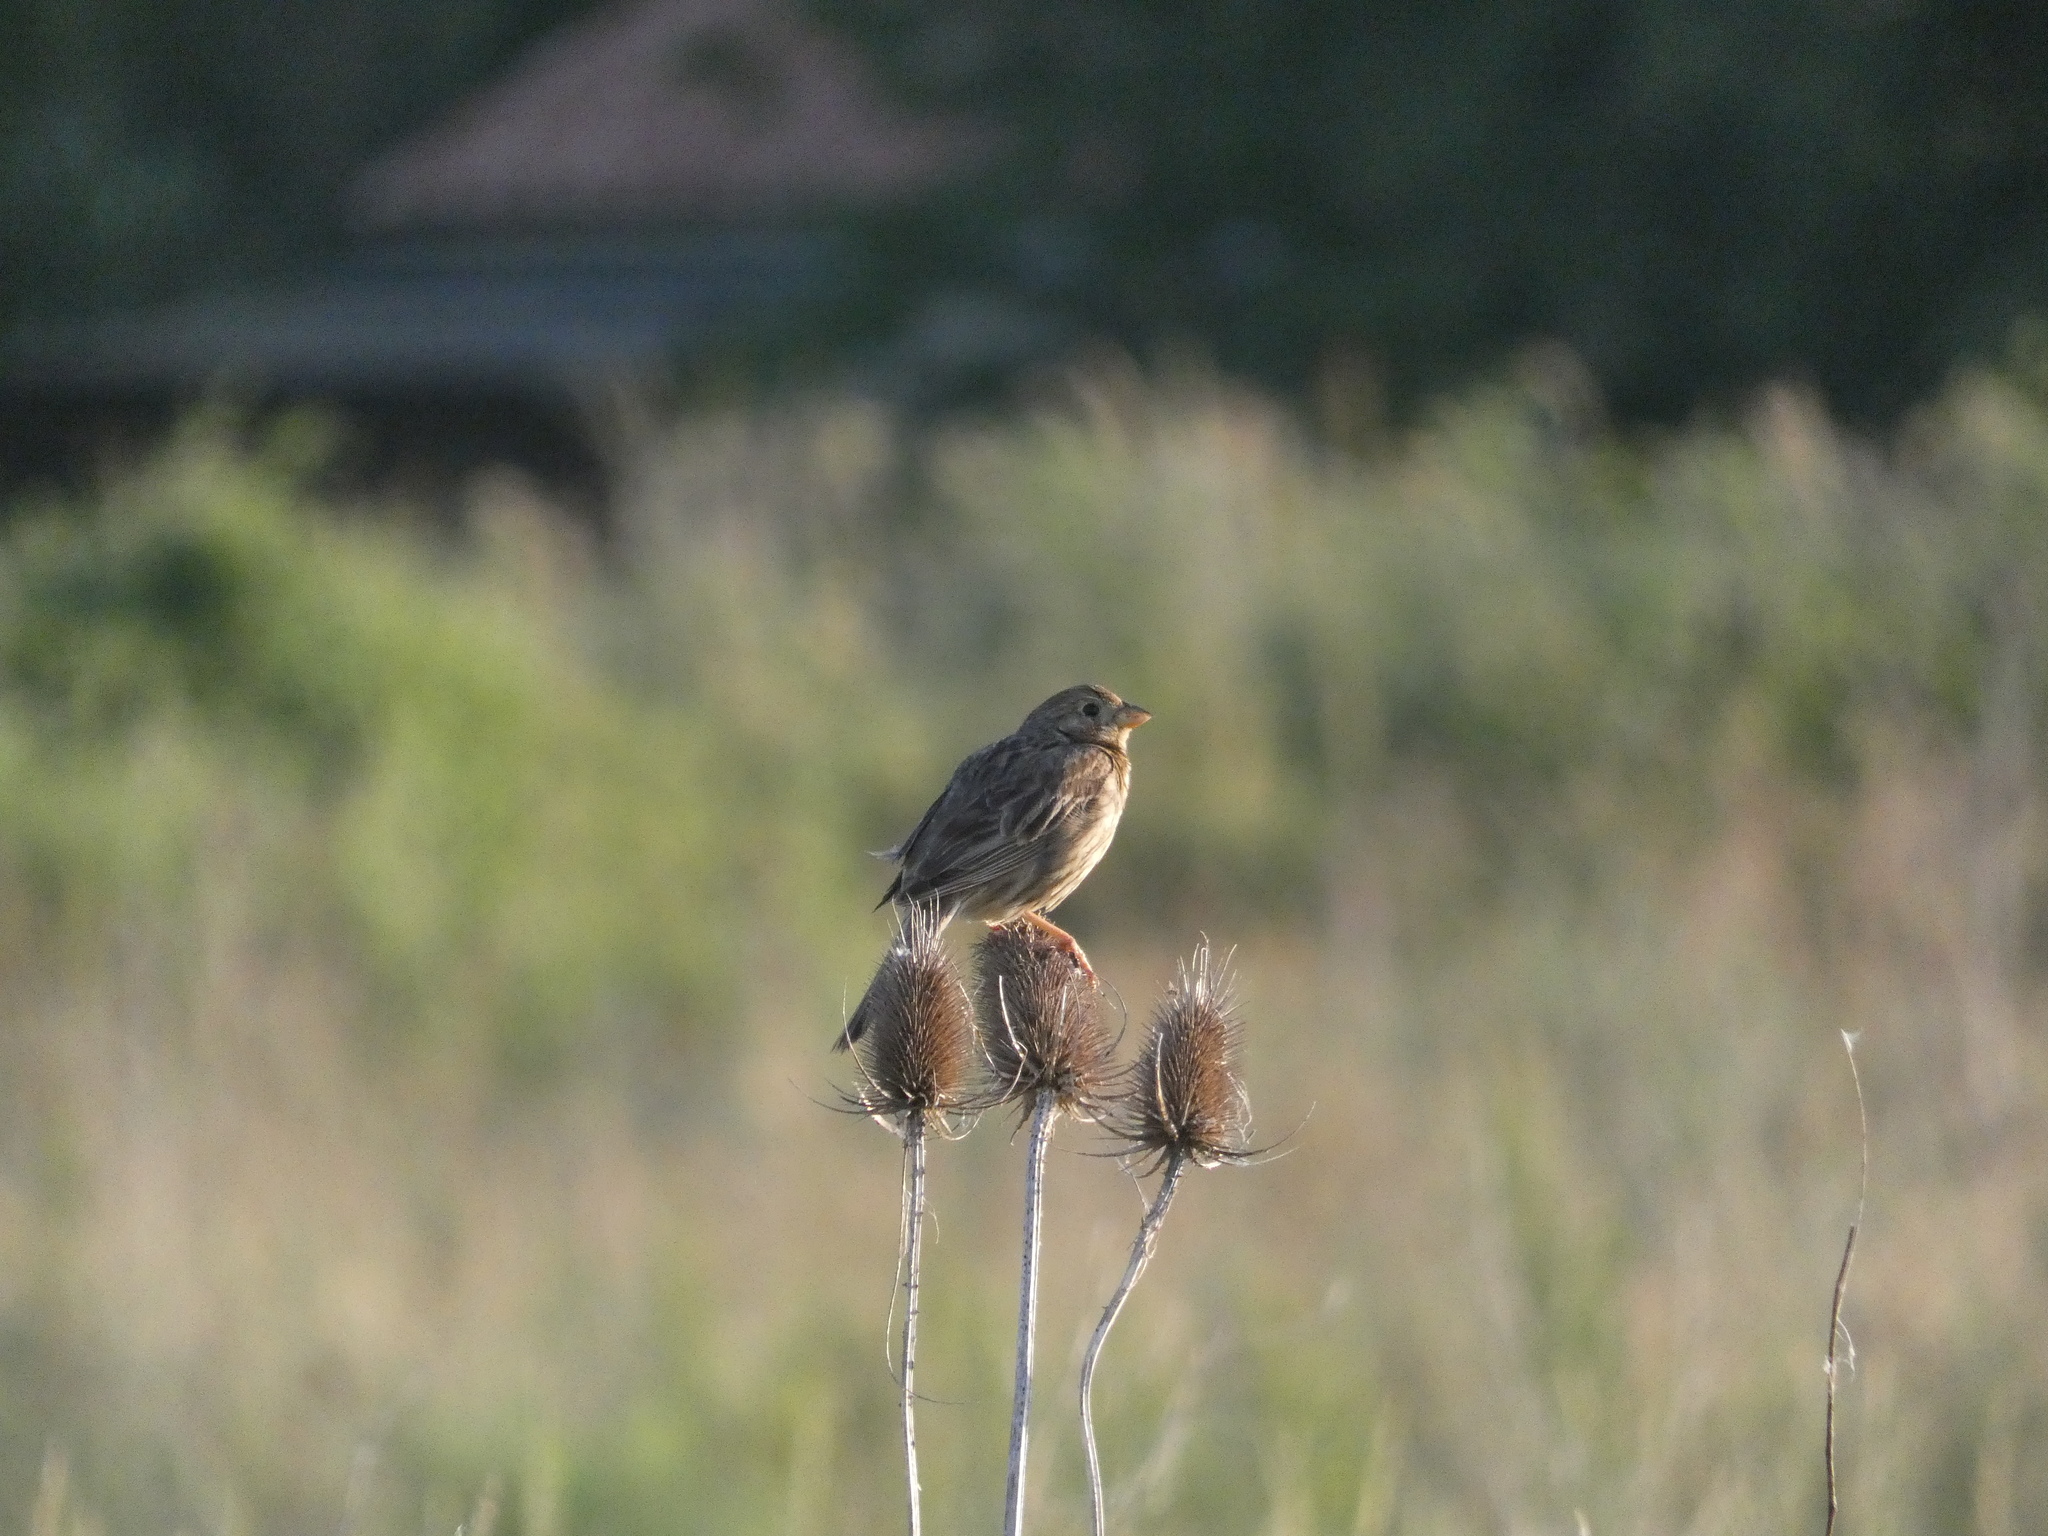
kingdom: Animalia
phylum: Chordata
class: Aves
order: Passeriformes
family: Emberizidae
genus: Emberiza
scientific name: Emberiza calandra
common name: Corn bunting
